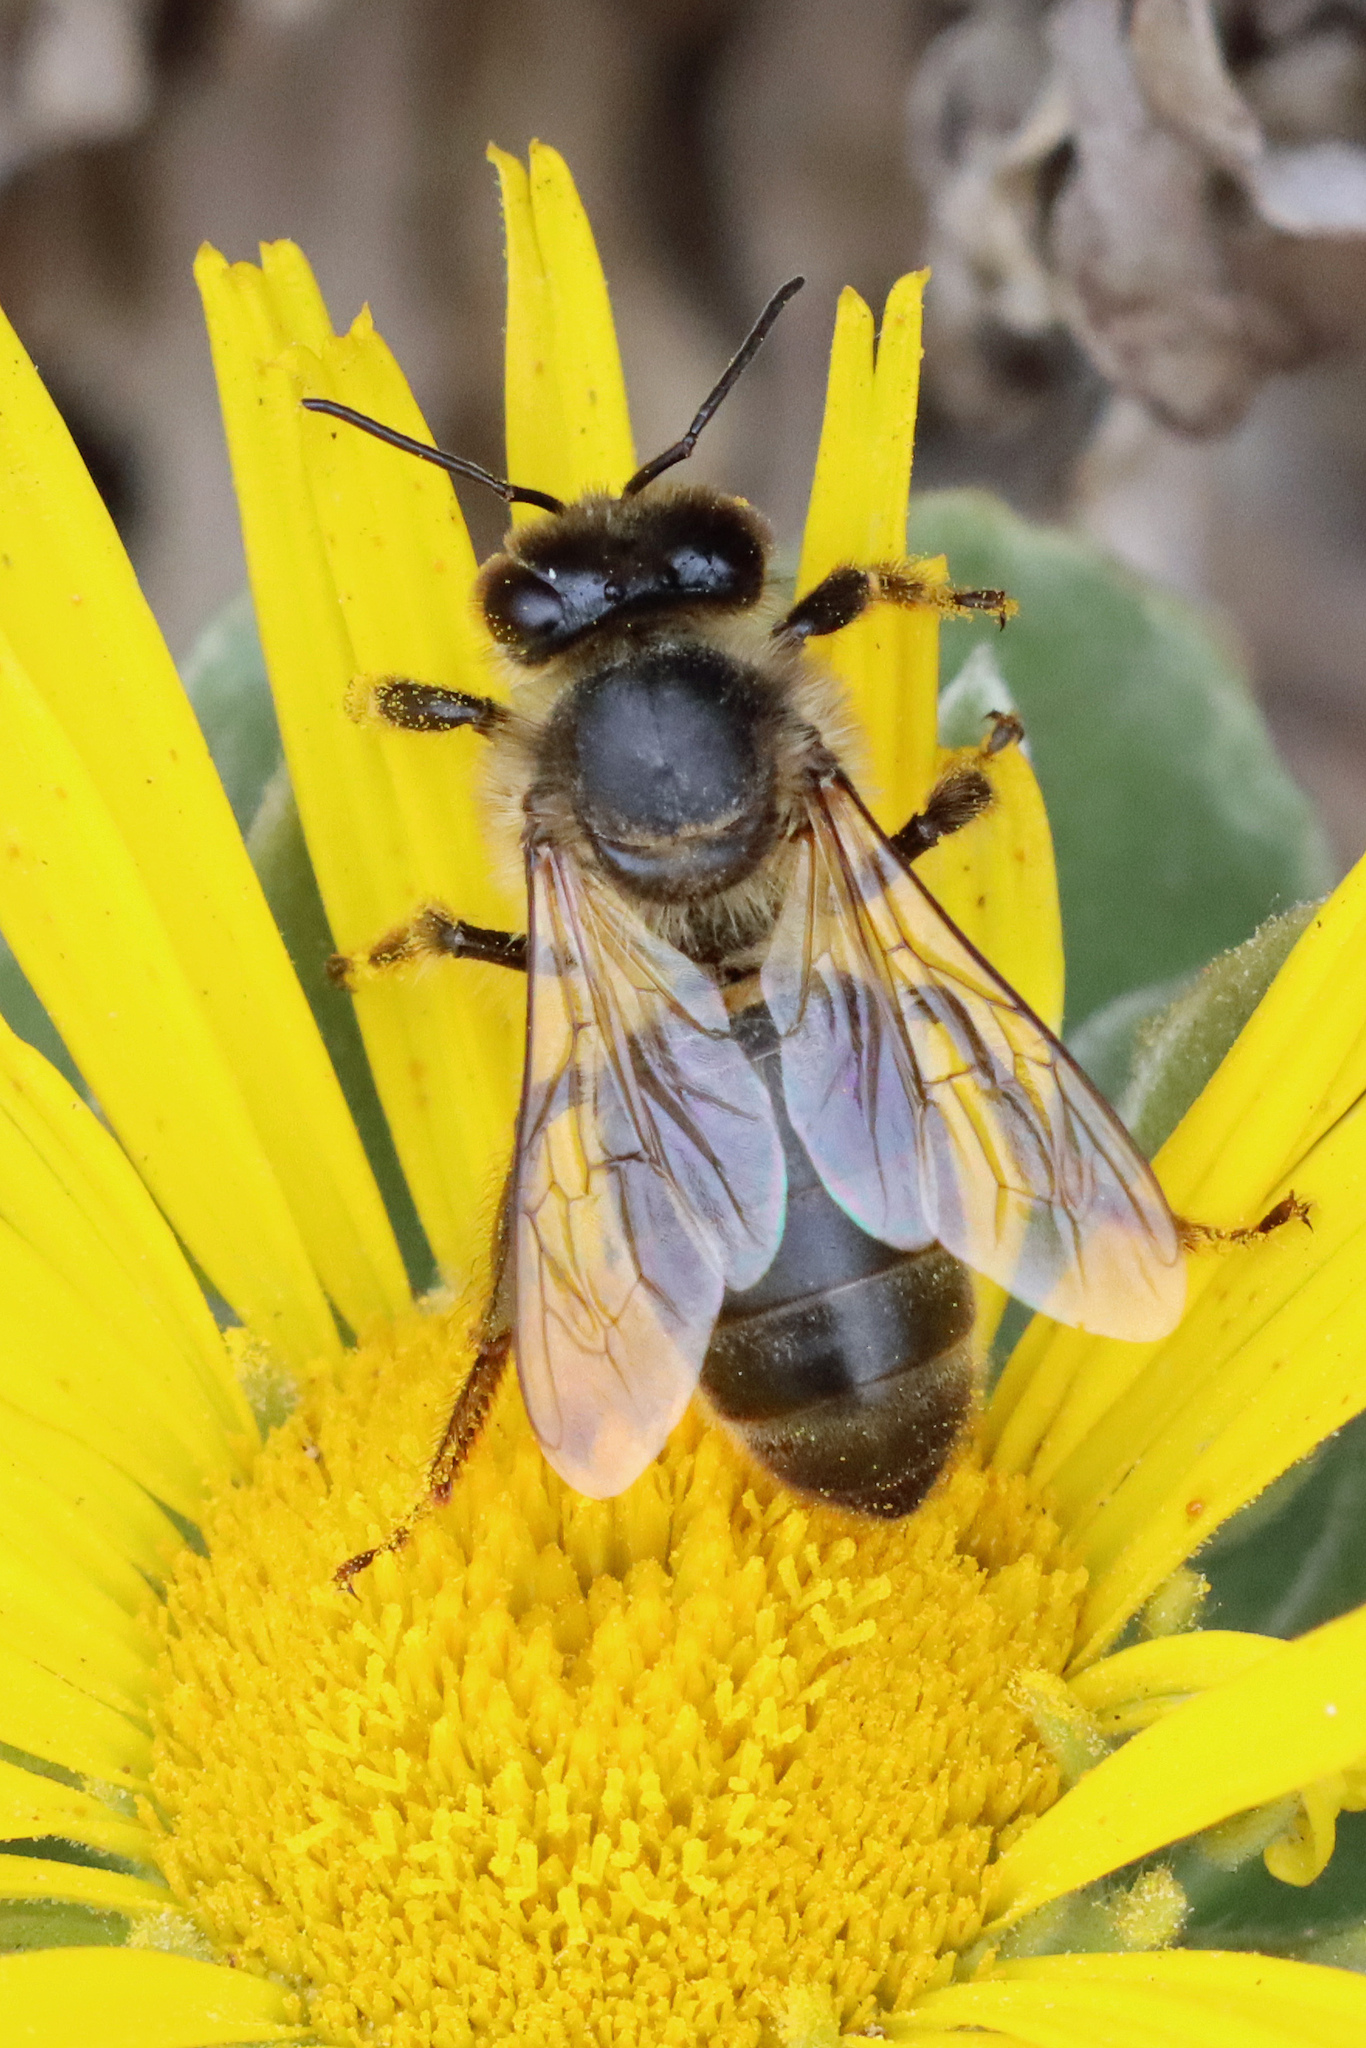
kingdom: Animalia
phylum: Arthropoda
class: Insecta
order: Hymenoptera
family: Apidae
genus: Apis
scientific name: Apis mellifera
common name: Honey bee
